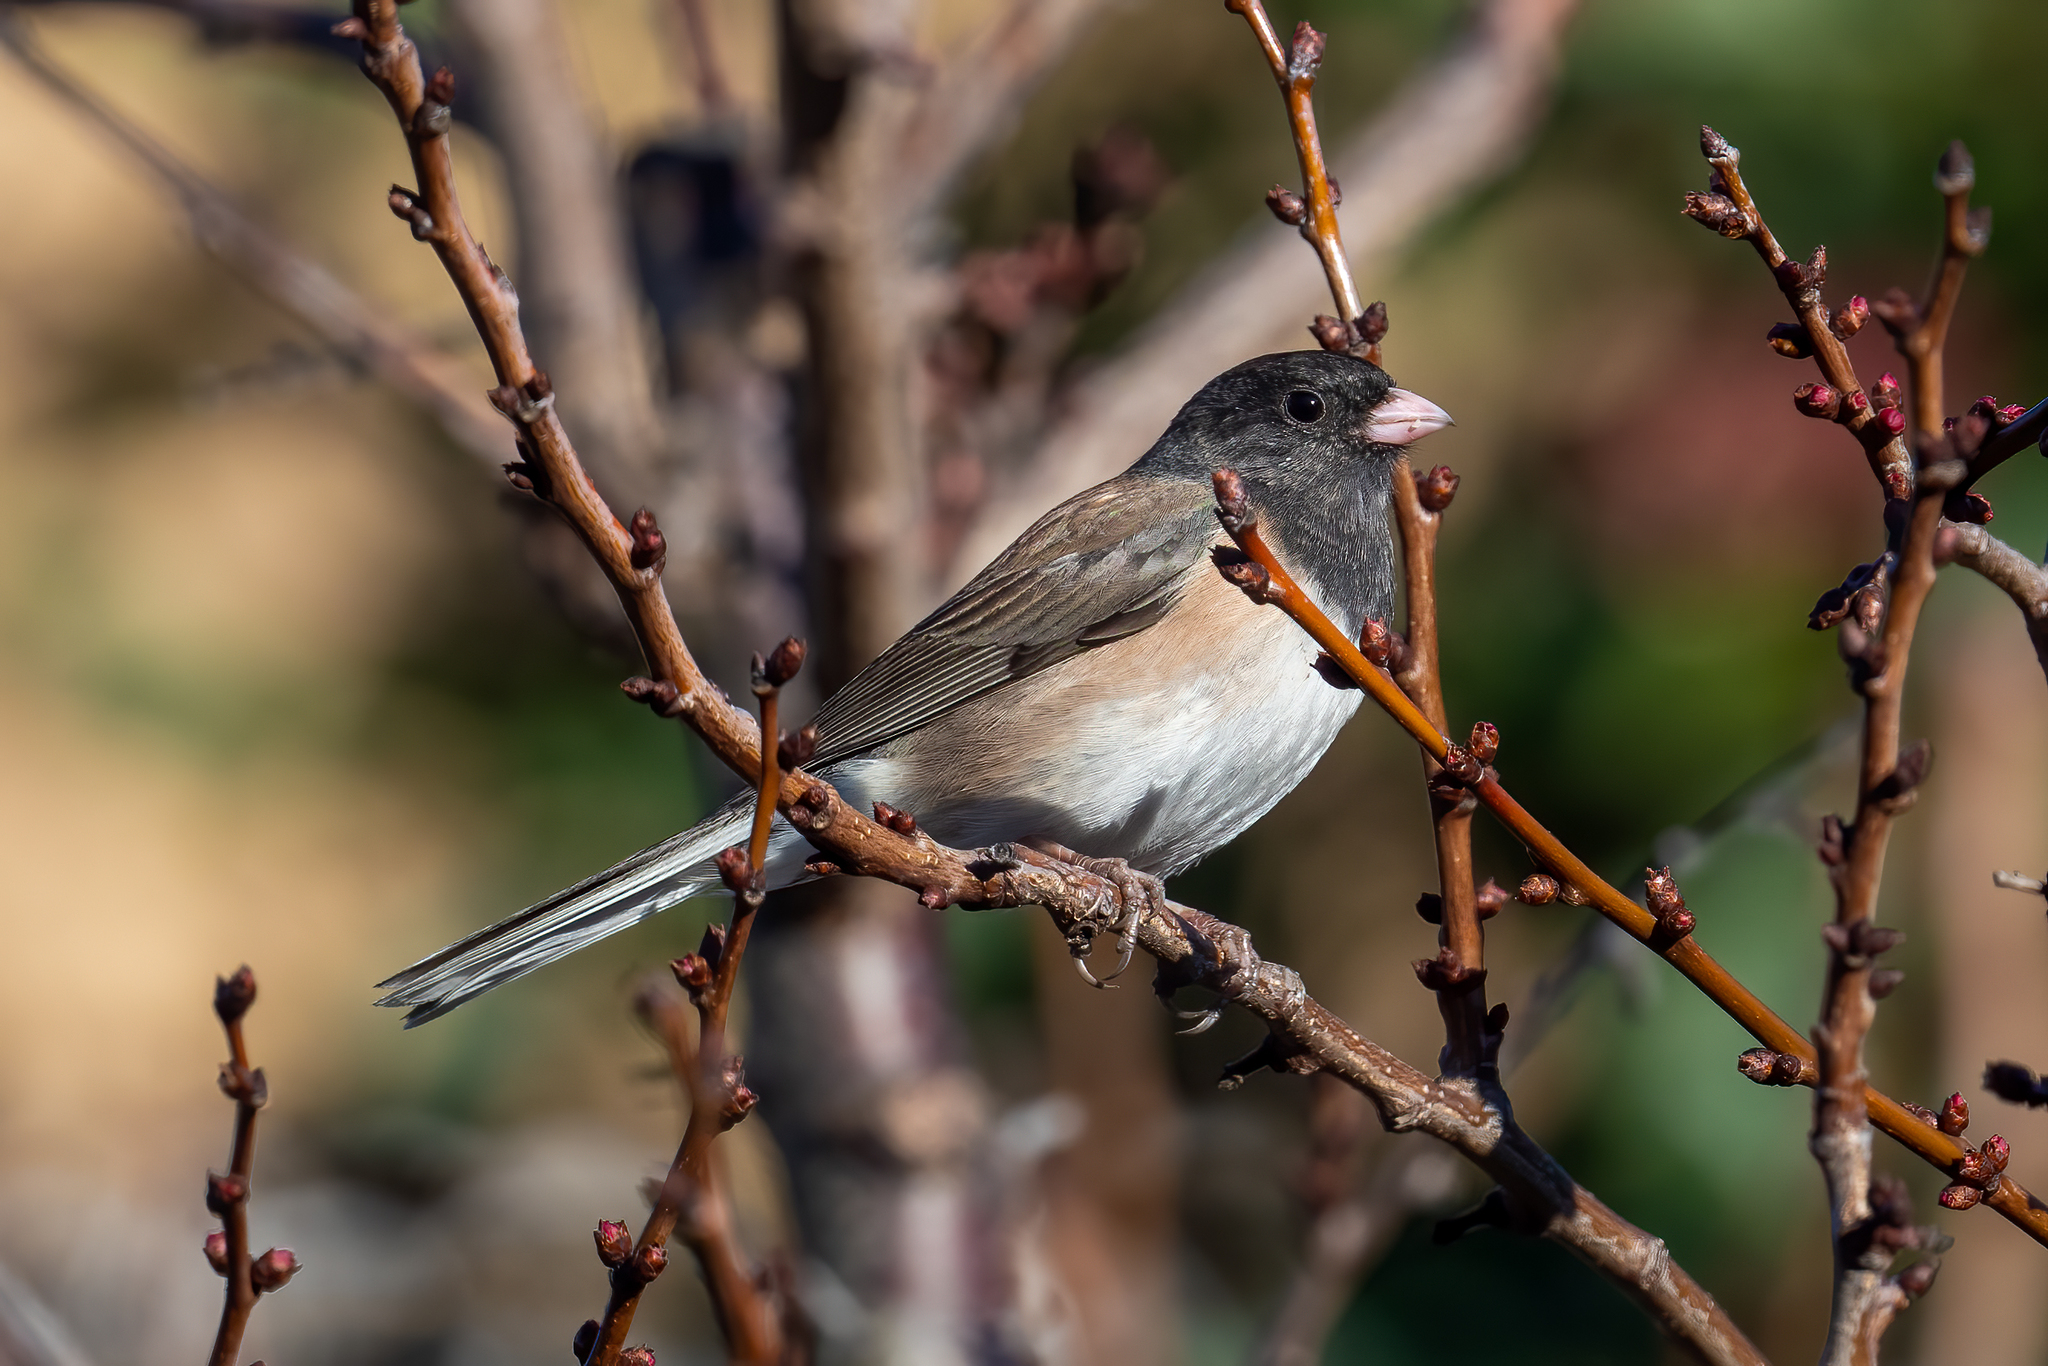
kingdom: Animalia
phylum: Chordata
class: Aves
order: Passeriformes
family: Passerellidae
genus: Junco
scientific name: Junco hyemalis
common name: Dark-eyed junco
